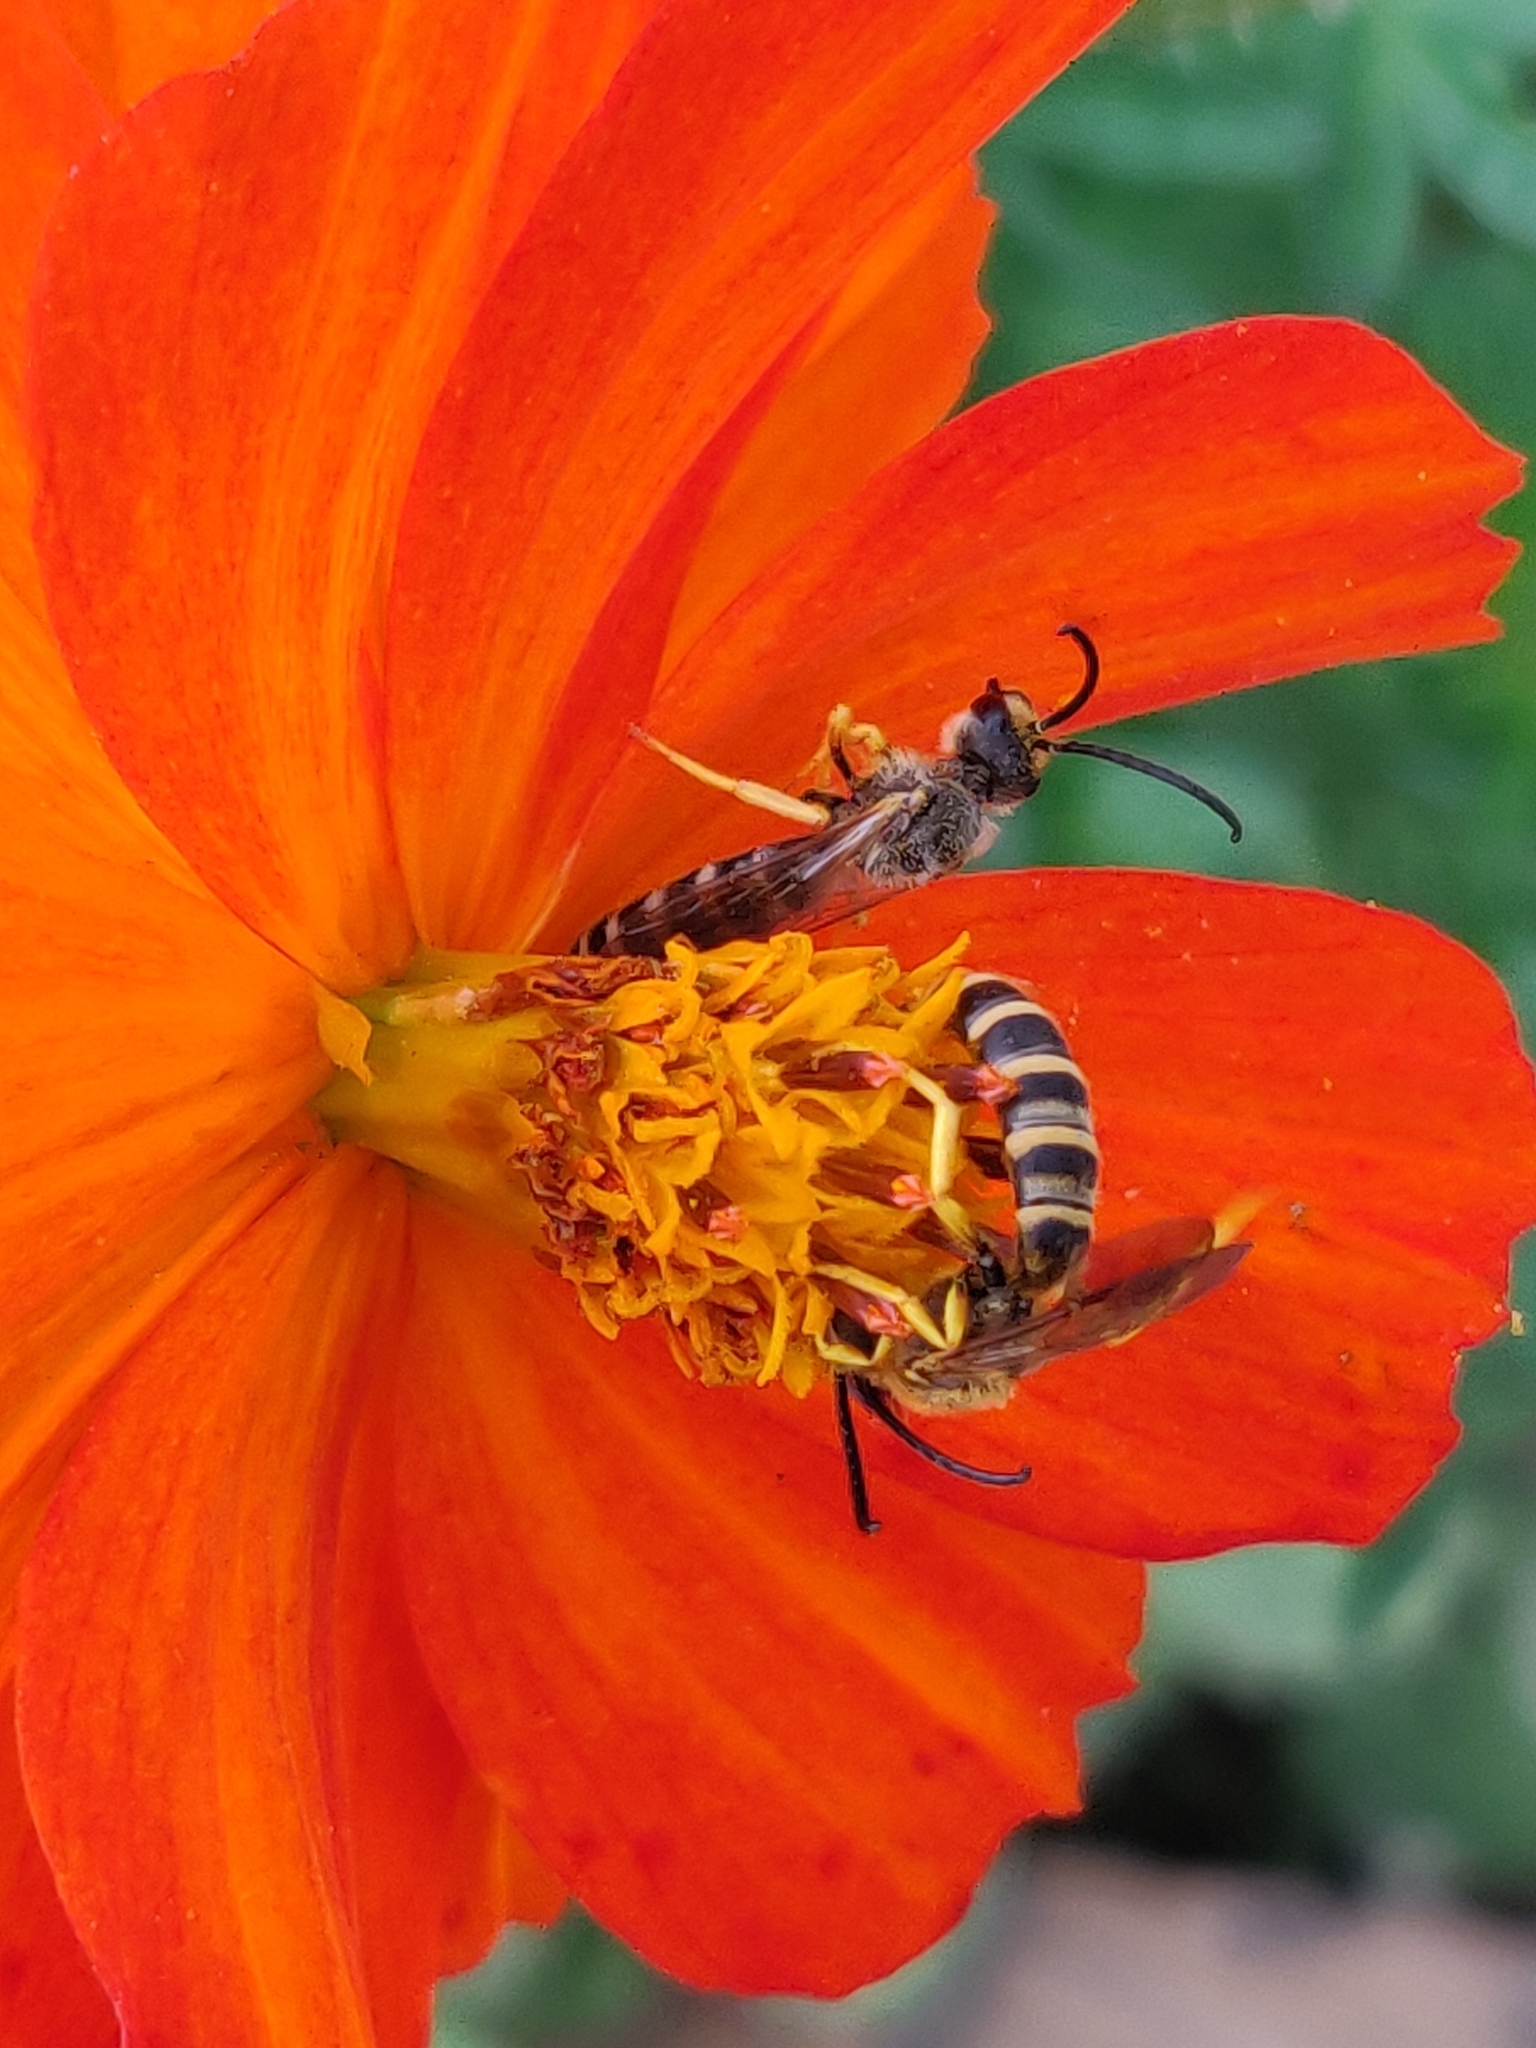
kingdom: Animalia
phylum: Arthropoda
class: Insecta
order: Hymenoptera
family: Halictidae
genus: Halictus
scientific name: Halictus scabiosae
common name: Great banded furrow bee
